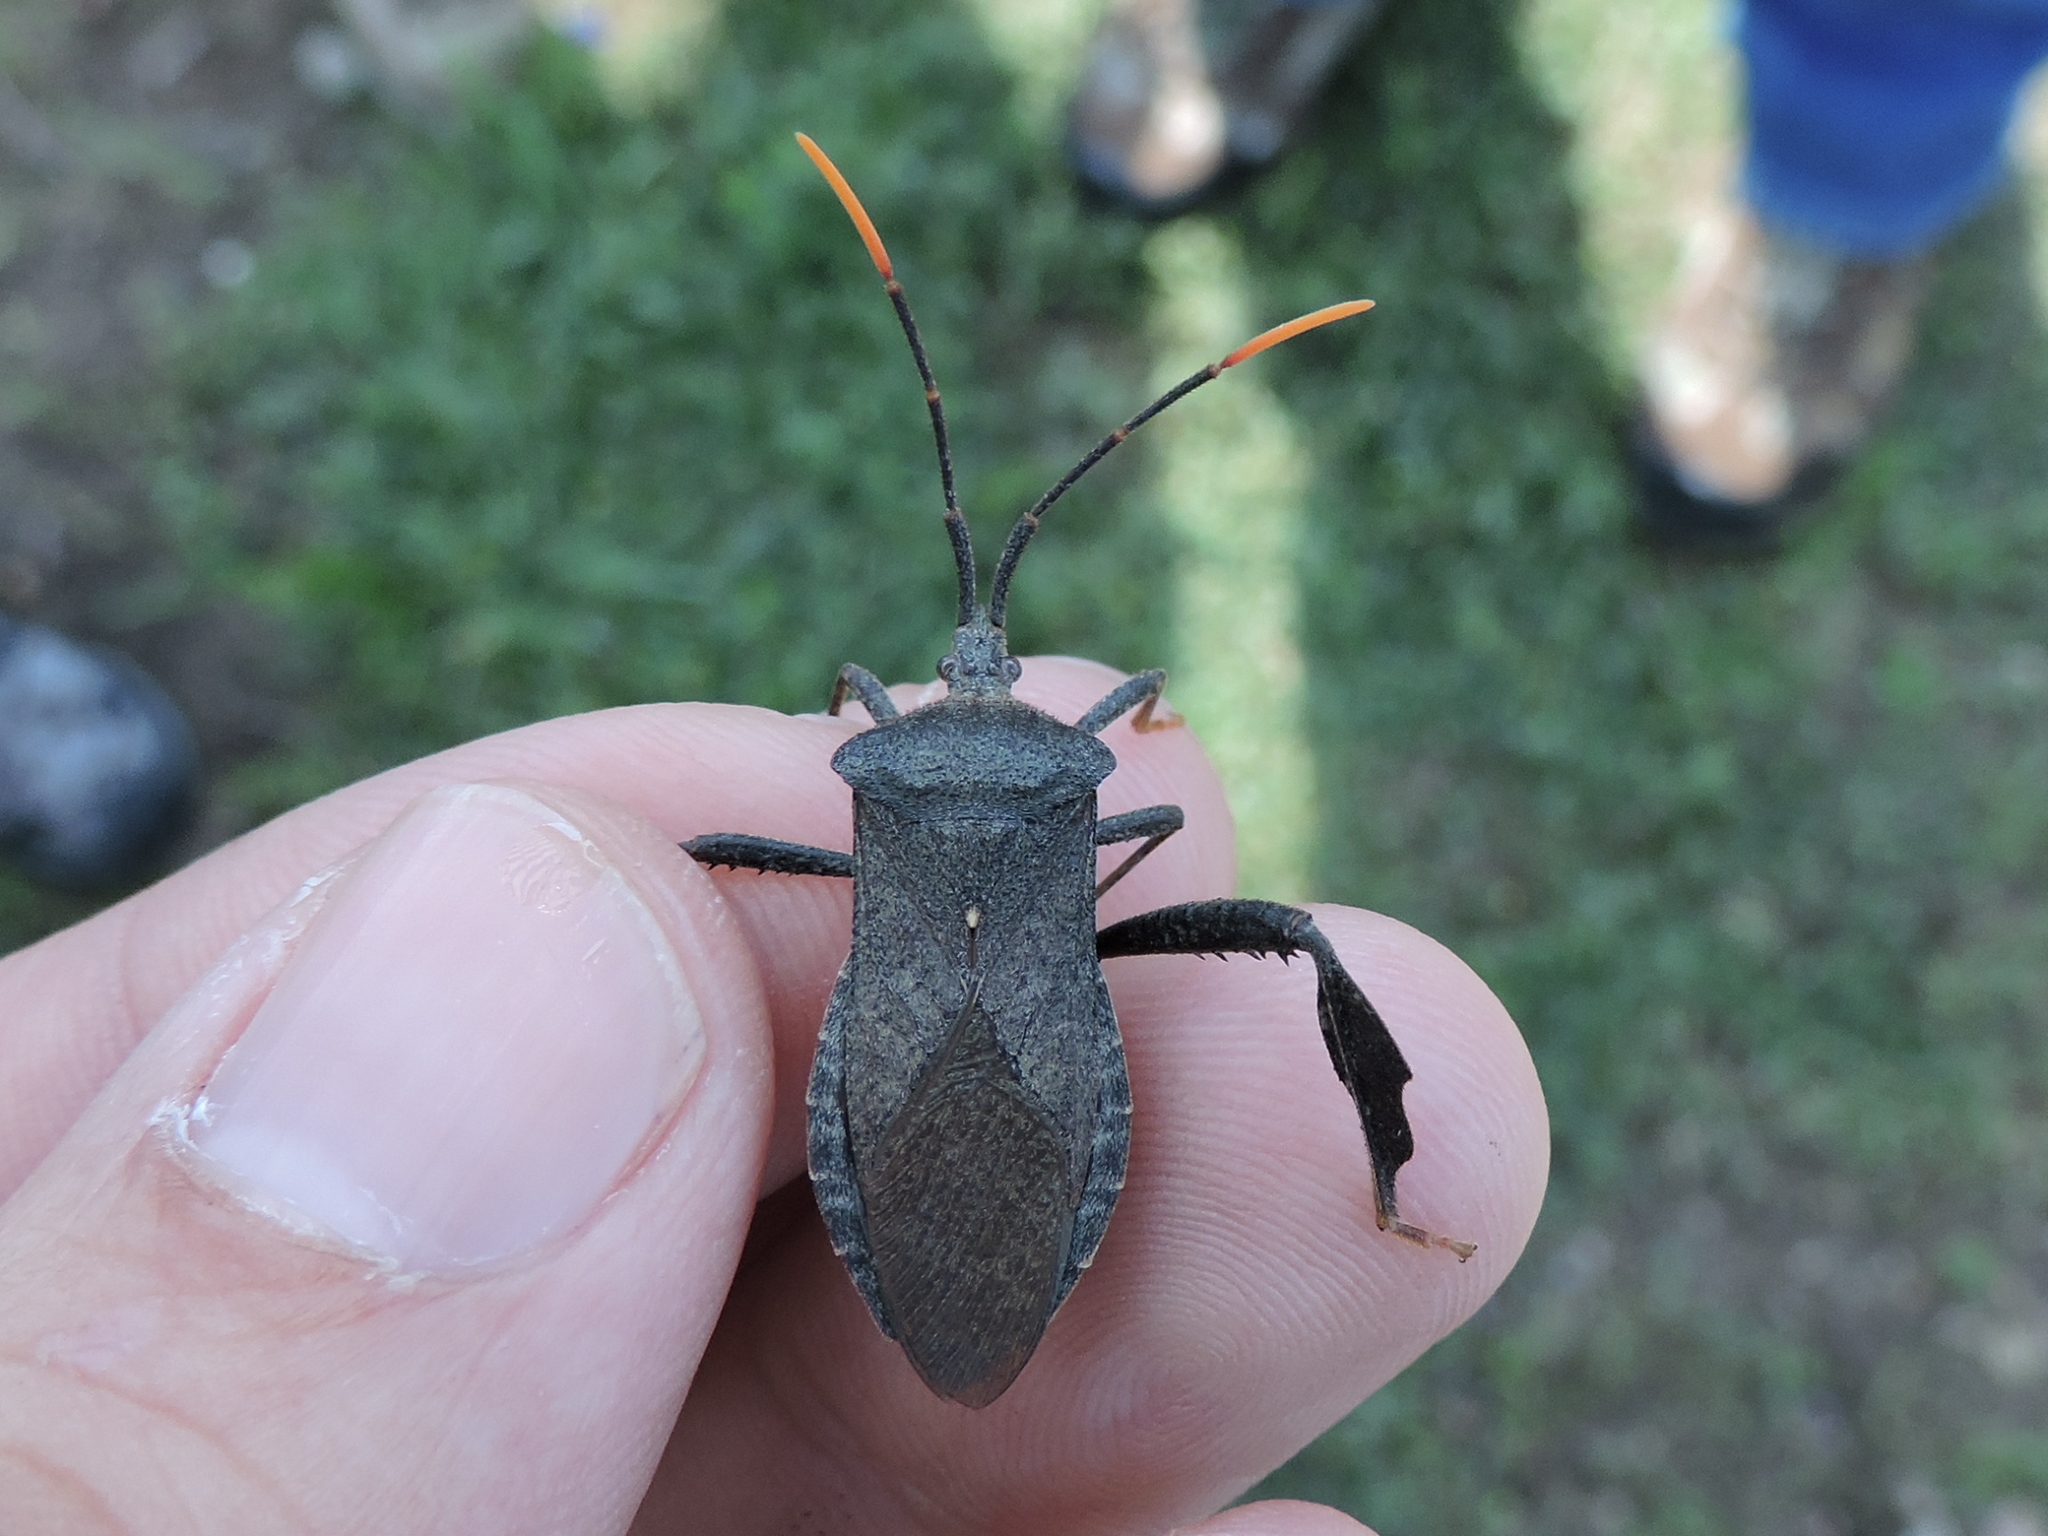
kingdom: Animalia
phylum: Arthropoda
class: Insecta
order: Hemiptera
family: Coreidae
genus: Acanthocephala
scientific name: Acanthocephala terminalis
